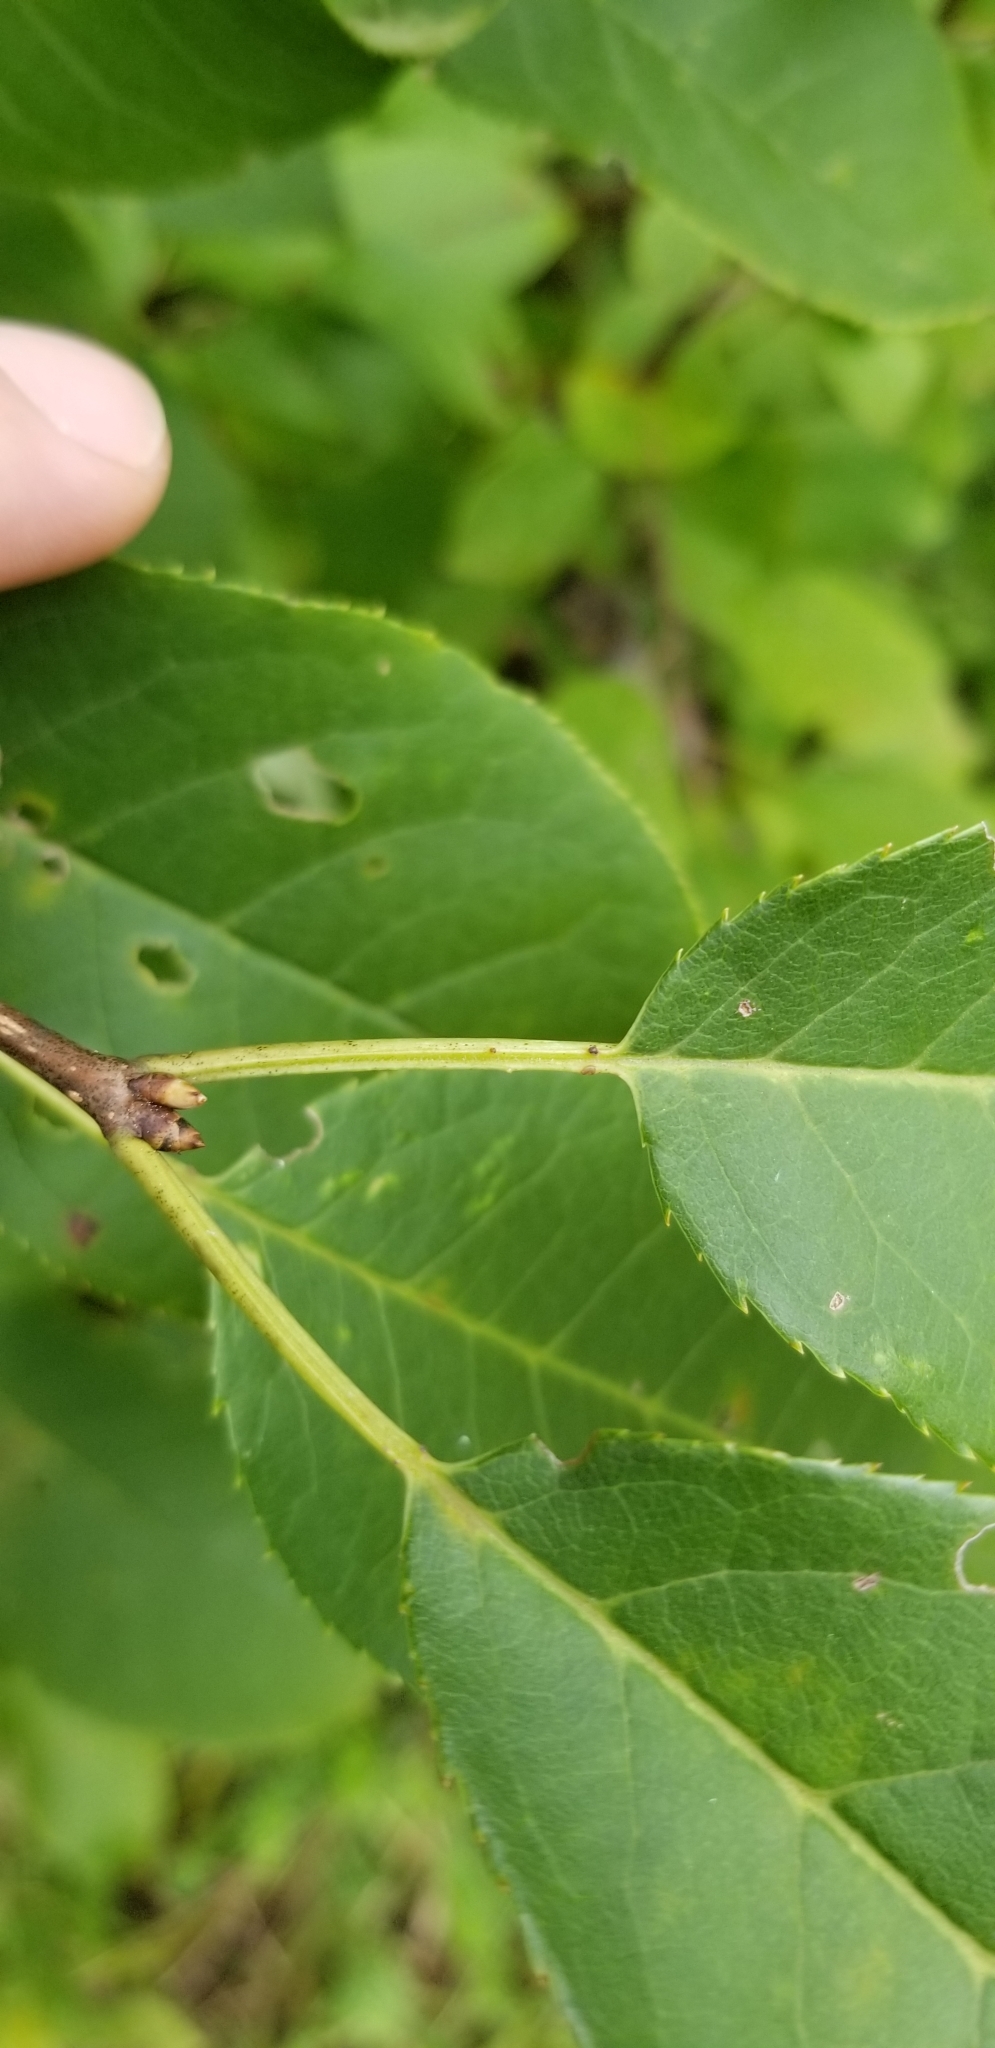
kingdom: Plantae
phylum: Tracheophyta
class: Magnoliopsida
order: Rosales
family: Rosaceae
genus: Prunus
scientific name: Prunus virginiana
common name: Chokecherry
